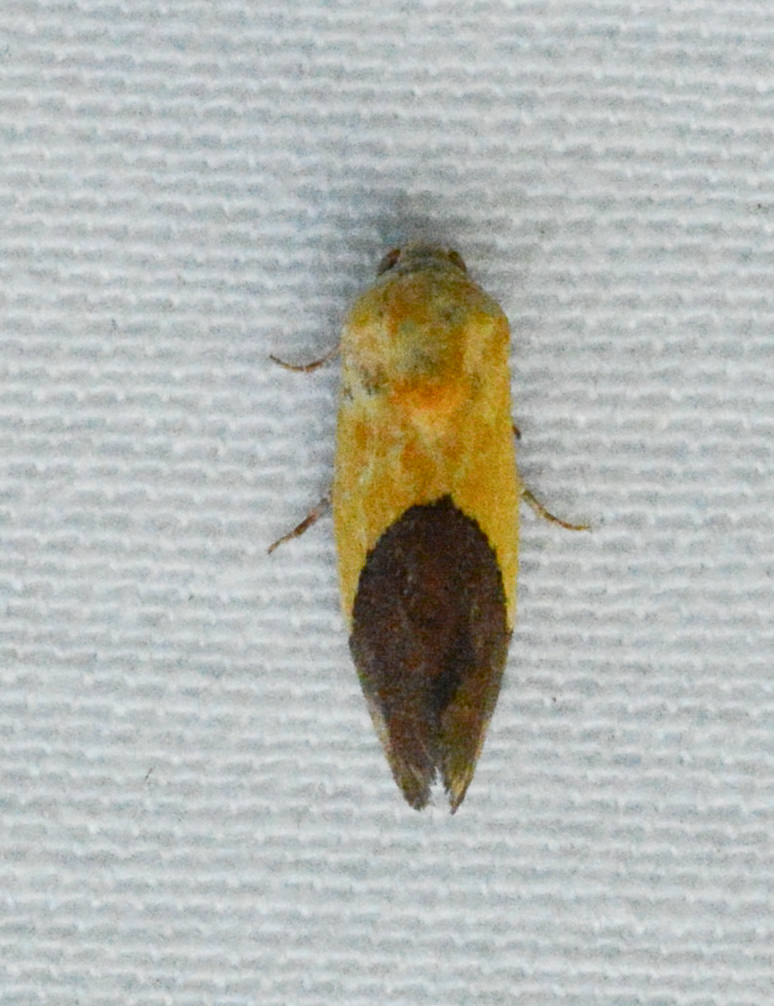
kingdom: Animalia
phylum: Arthropoda
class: Insecta
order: Lepidoptera
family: Noctuidae
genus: Acontia
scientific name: Acontia semiflava
